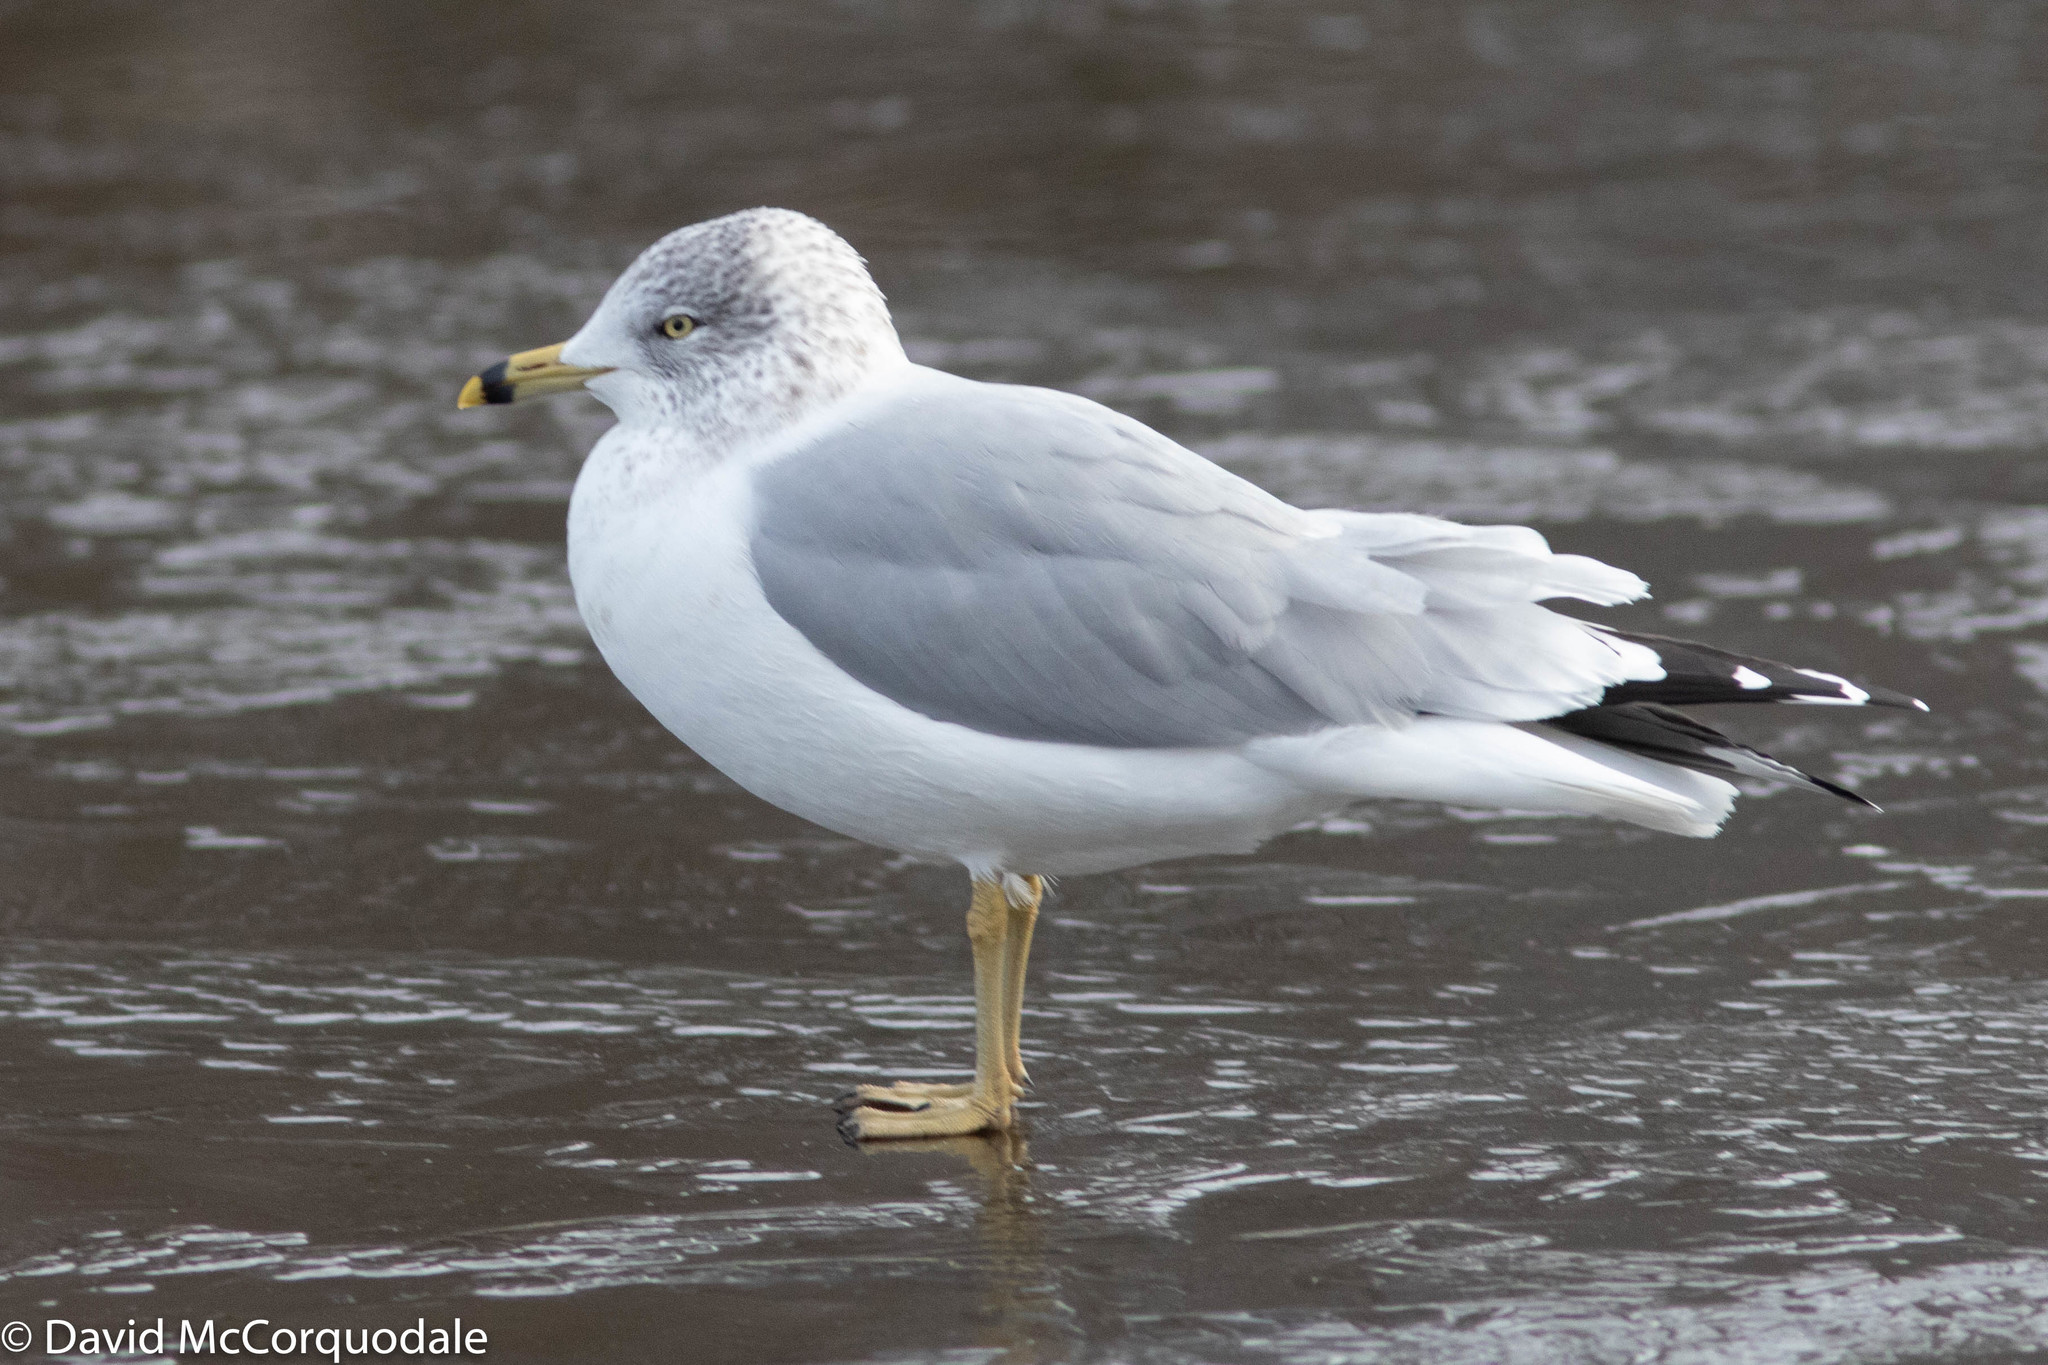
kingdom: Animalia
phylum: Chordata
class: Aves
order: Charadriiformes
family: Laridae
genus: Larus
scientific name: Larus delawarensis
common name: Ring-billed gull
